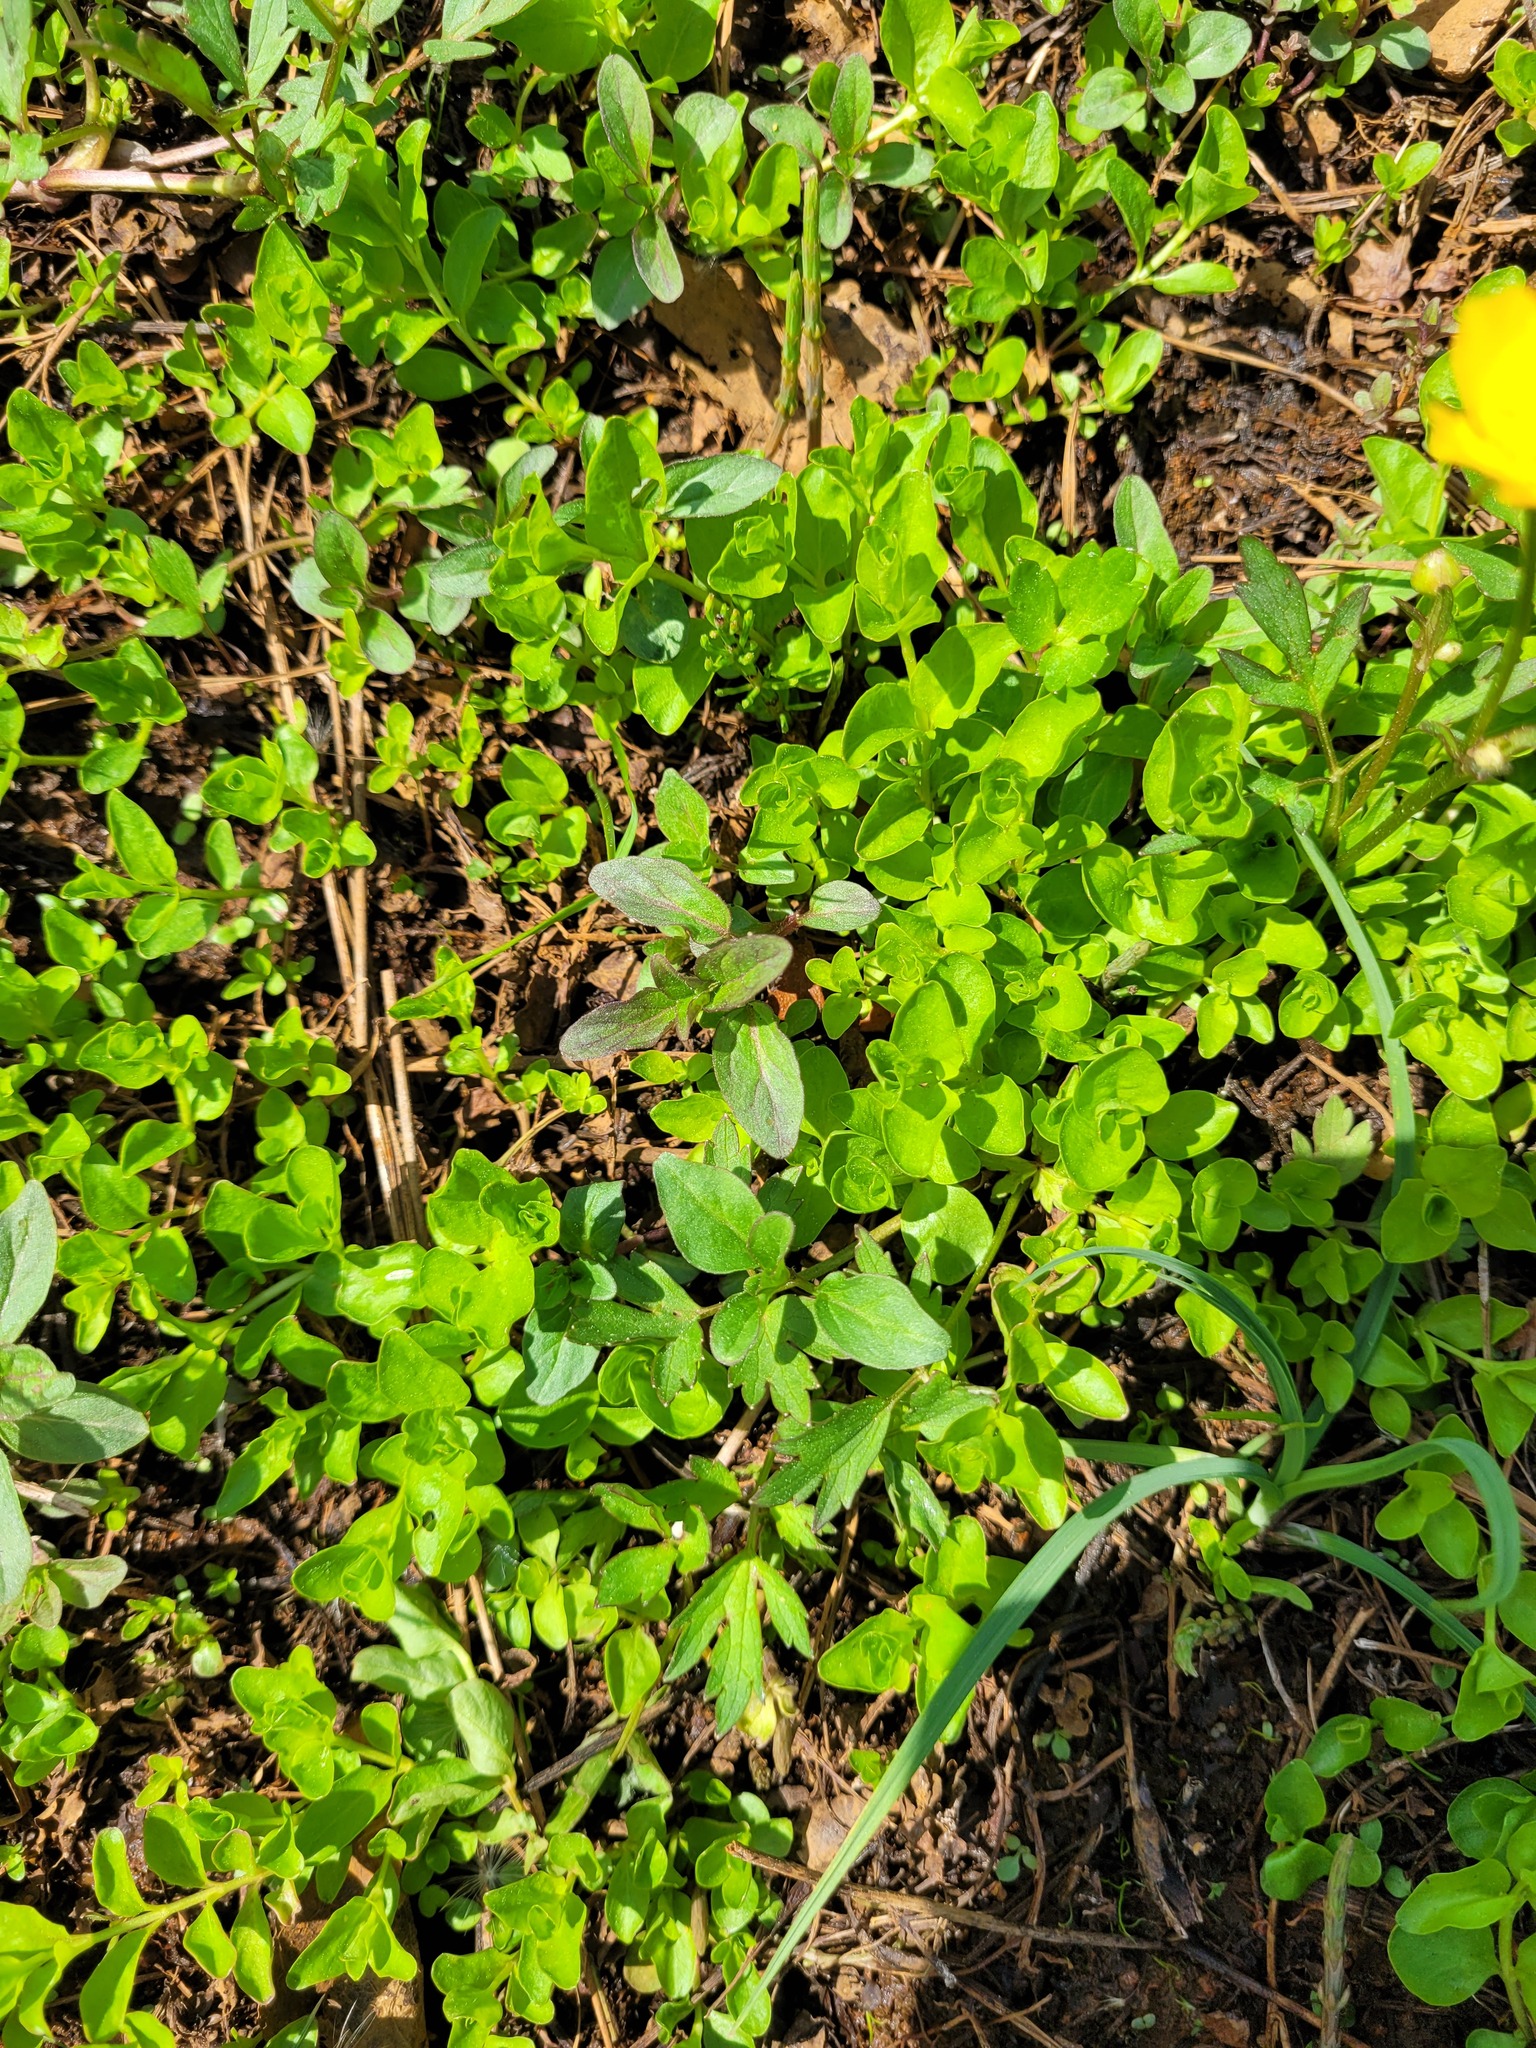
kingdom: Plantae
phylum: Tracheophyta
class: Magnoliopsida
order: Ericales
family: Primulaceae
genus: Lysimachia
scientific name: Lysimachia nummularia
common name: Moneywort
